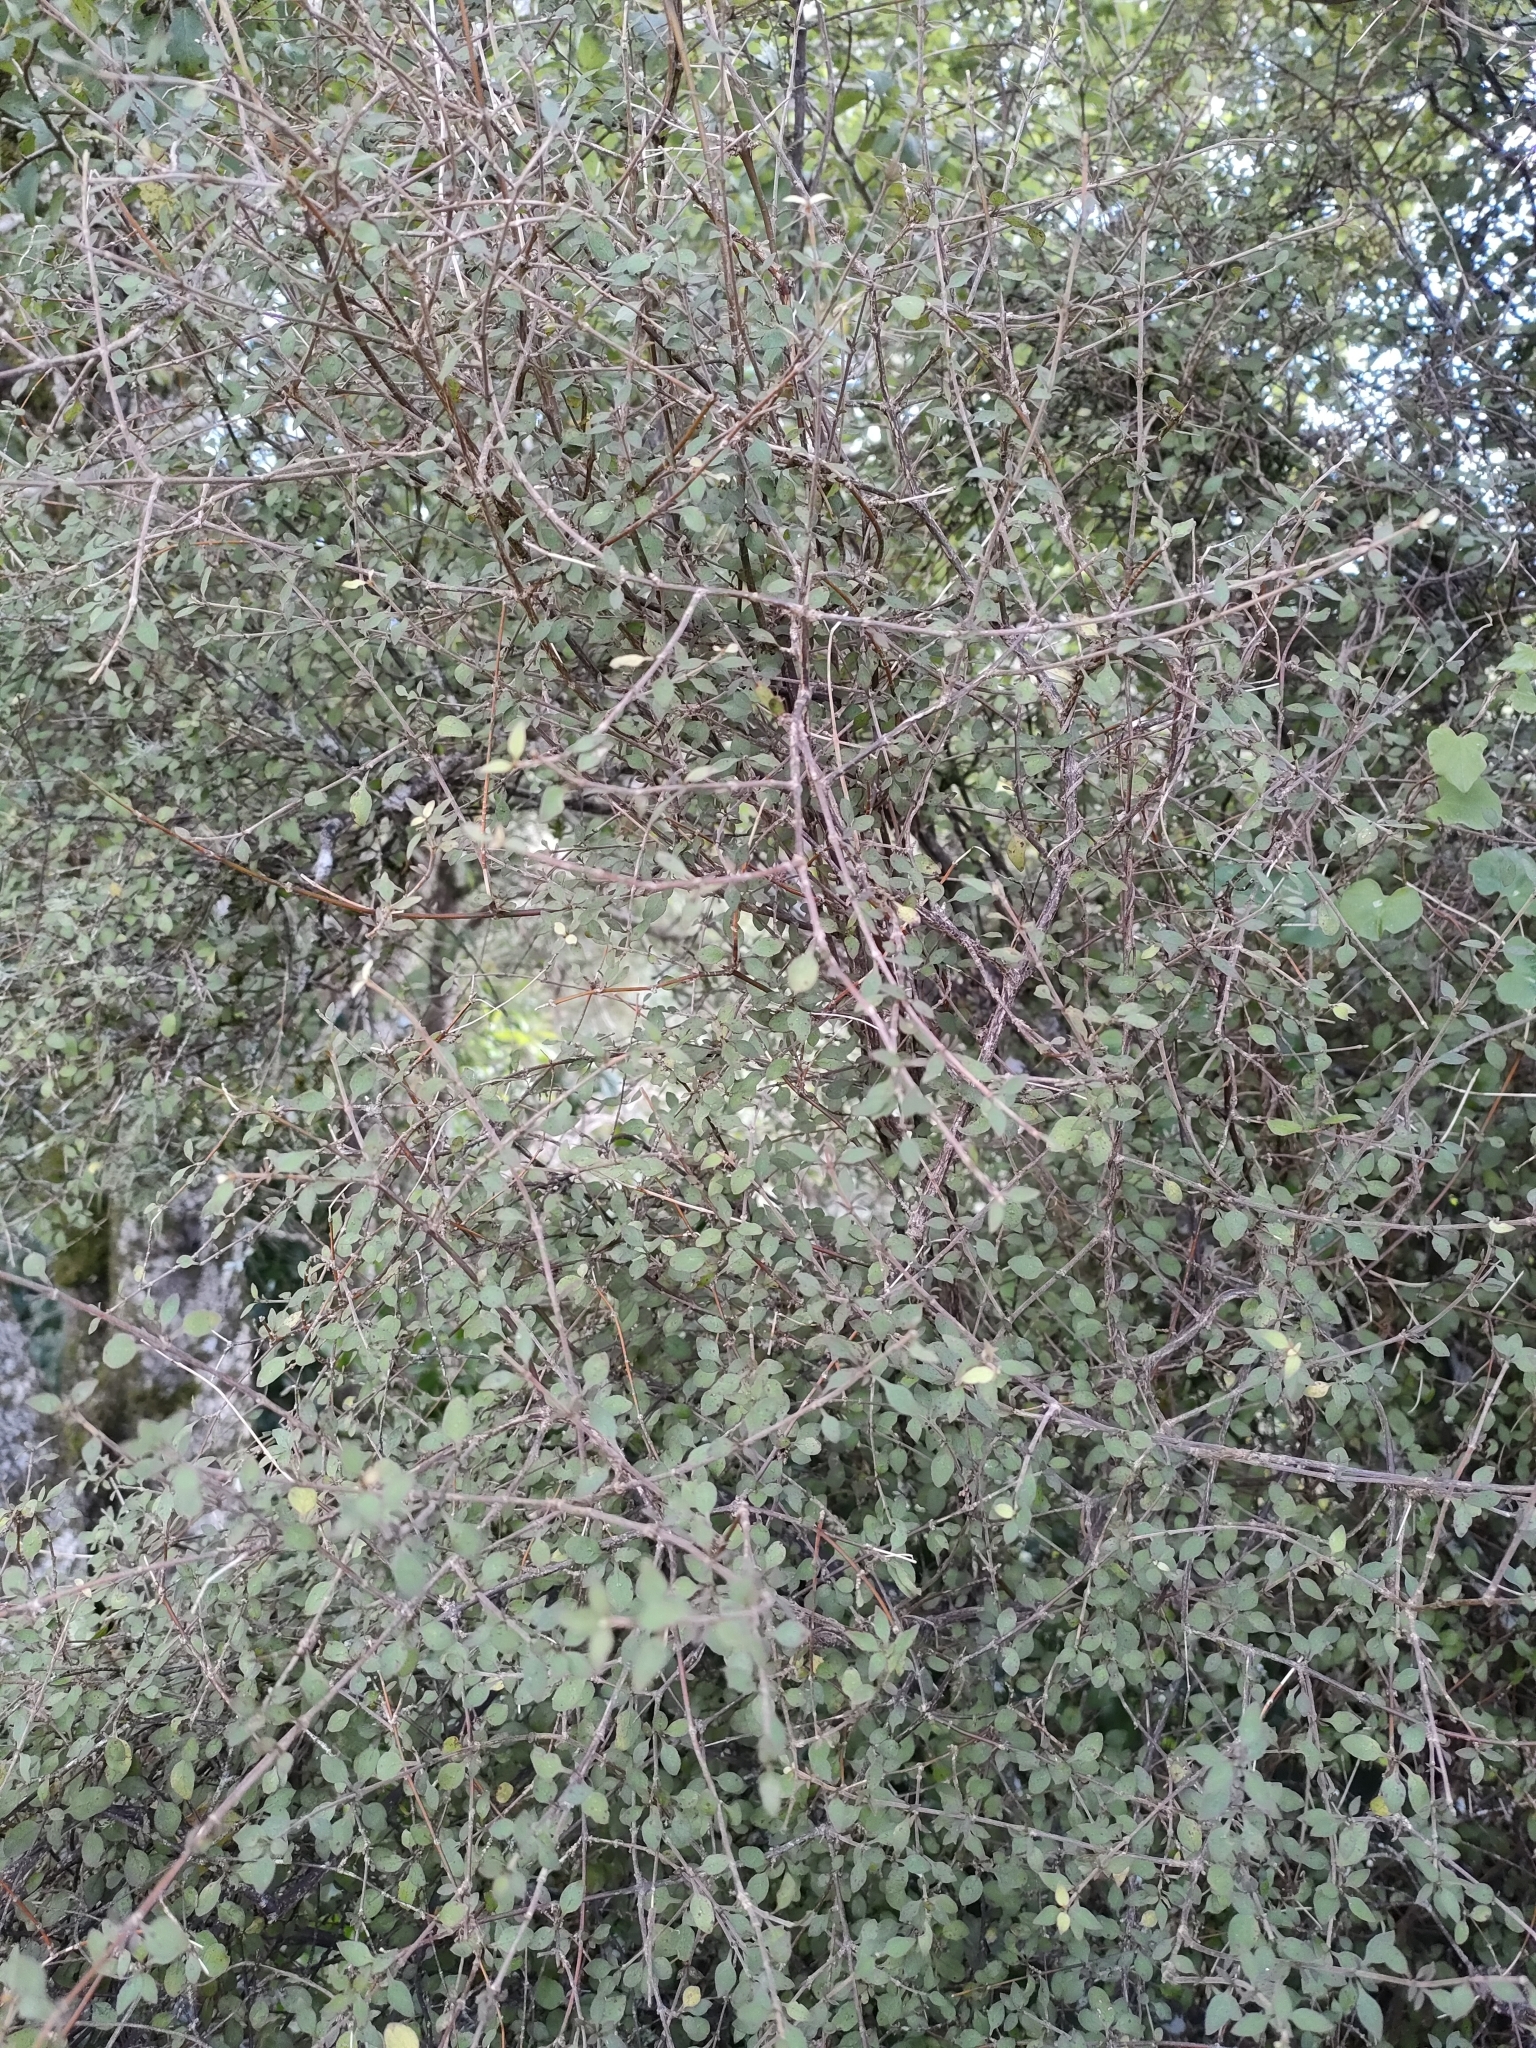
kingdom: Plantae
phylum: Tracheophyta
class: Magnoliopsida
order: Gentianales
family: Rubiaceae
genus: Coprosma
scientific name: Coprosma rubra
